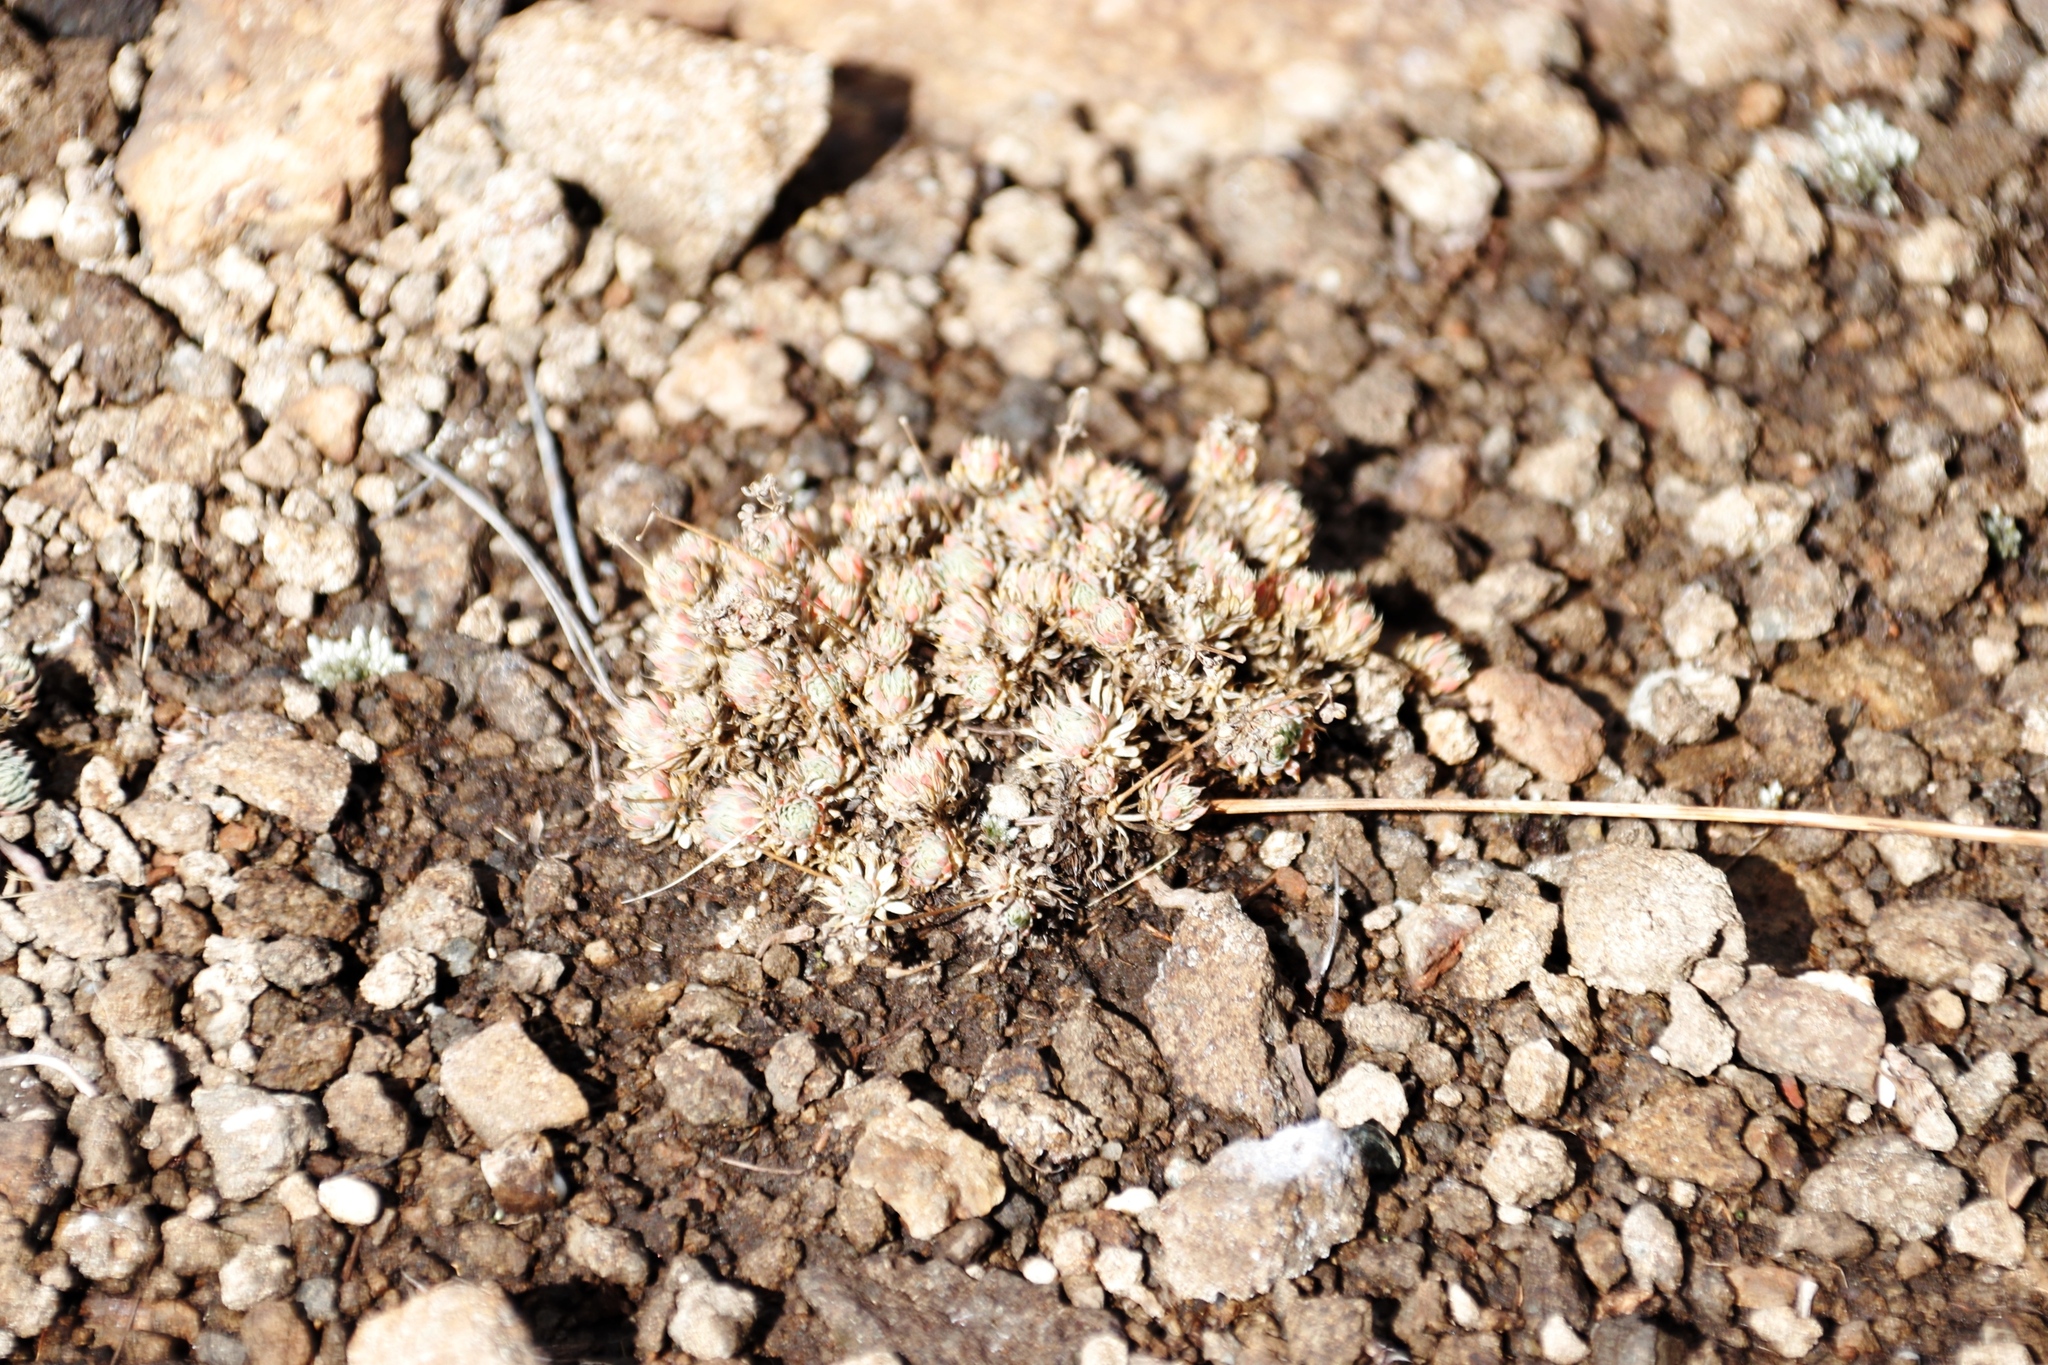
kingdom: Plantae
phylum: Tracheophyta
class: Magnoliopsida
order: Caryophyllales
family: Molluginaceae
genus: Psammotropha
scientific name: Psammotropha mucronata
